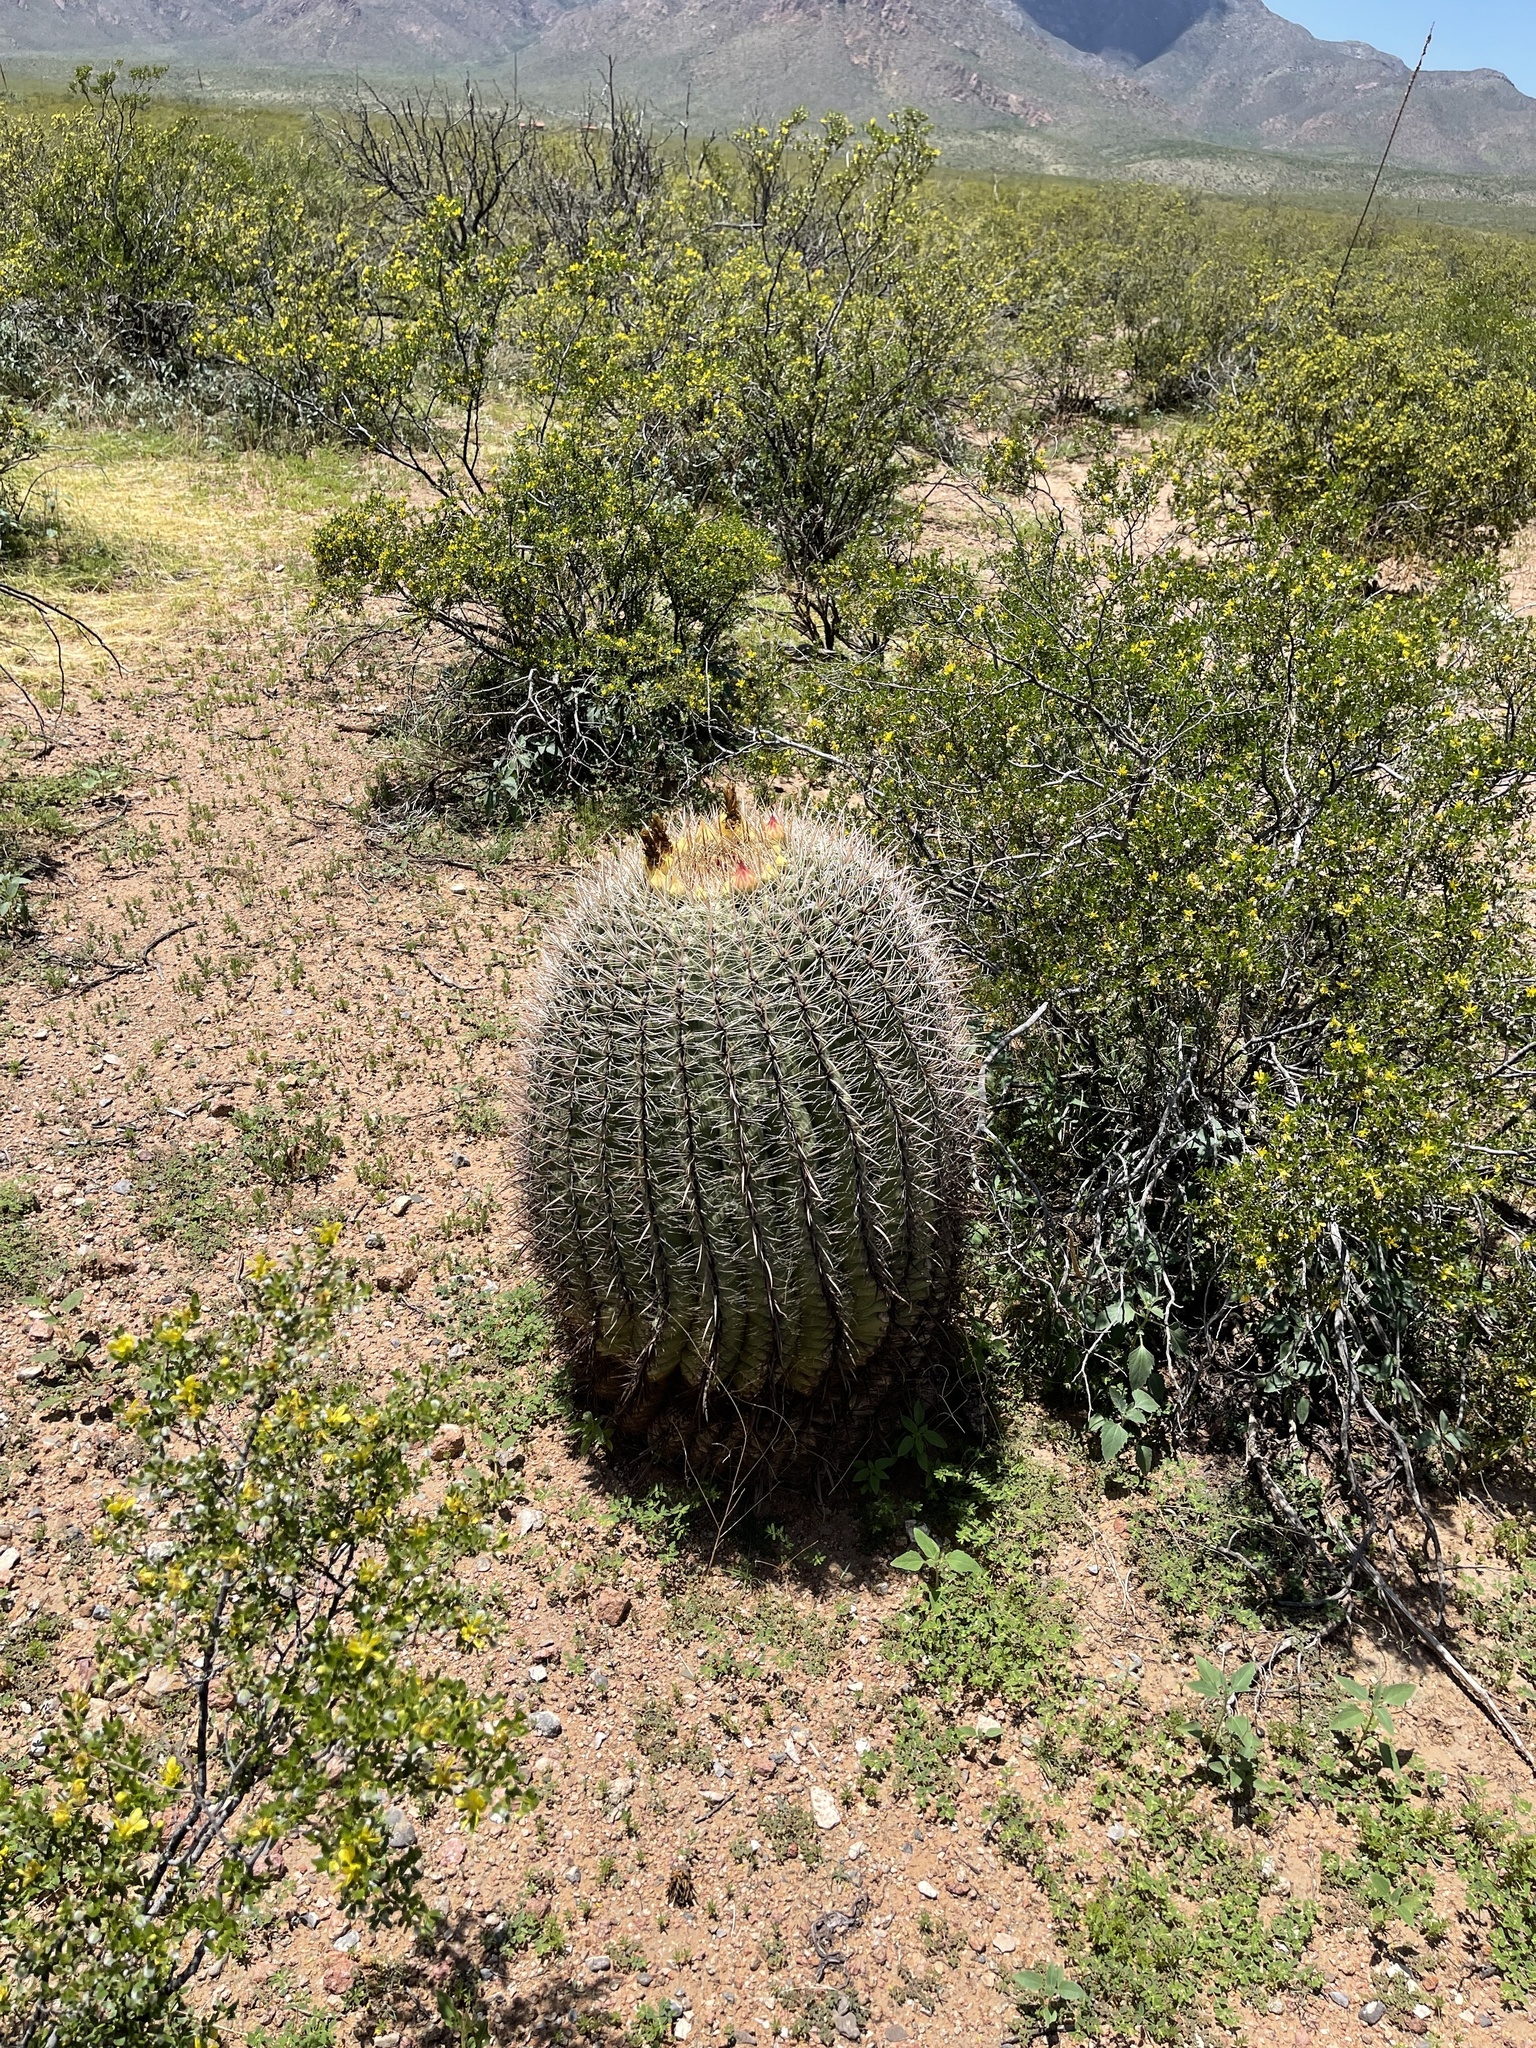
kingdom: Plantae
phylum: Tracheophyta
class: Magnoliopsida
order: Caryophyllales
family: Cactaceae
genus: Ferocactus
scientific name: Ferocactus wislizeni
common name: Candy barrel cactus
